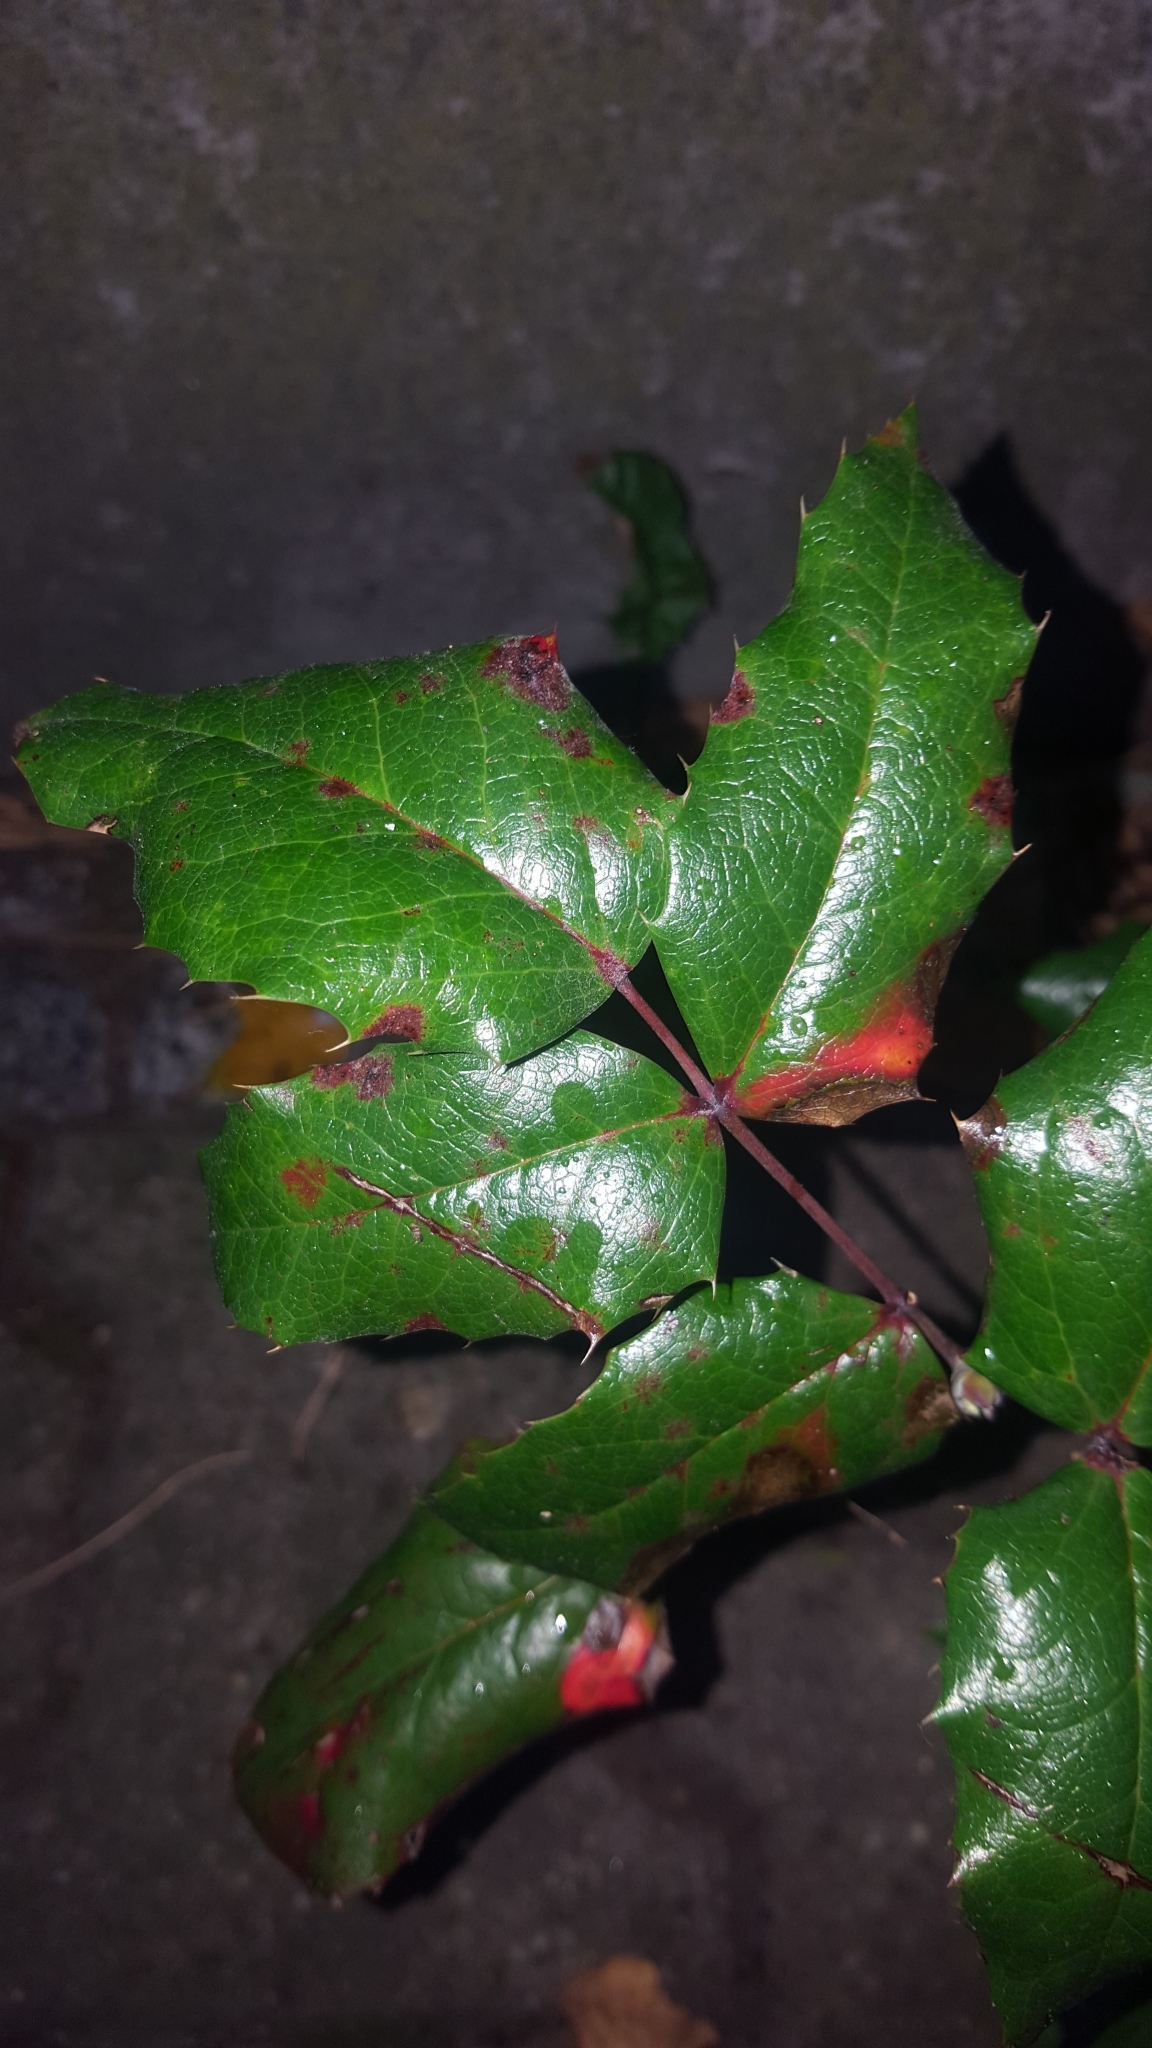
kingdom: Plantae
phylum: Tracheophyta
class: Magnoliopsida
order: Ranunculales
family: Berberidaceae
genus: Mahonia
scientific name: Mahonia aquifolium
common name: Oregon-grape
